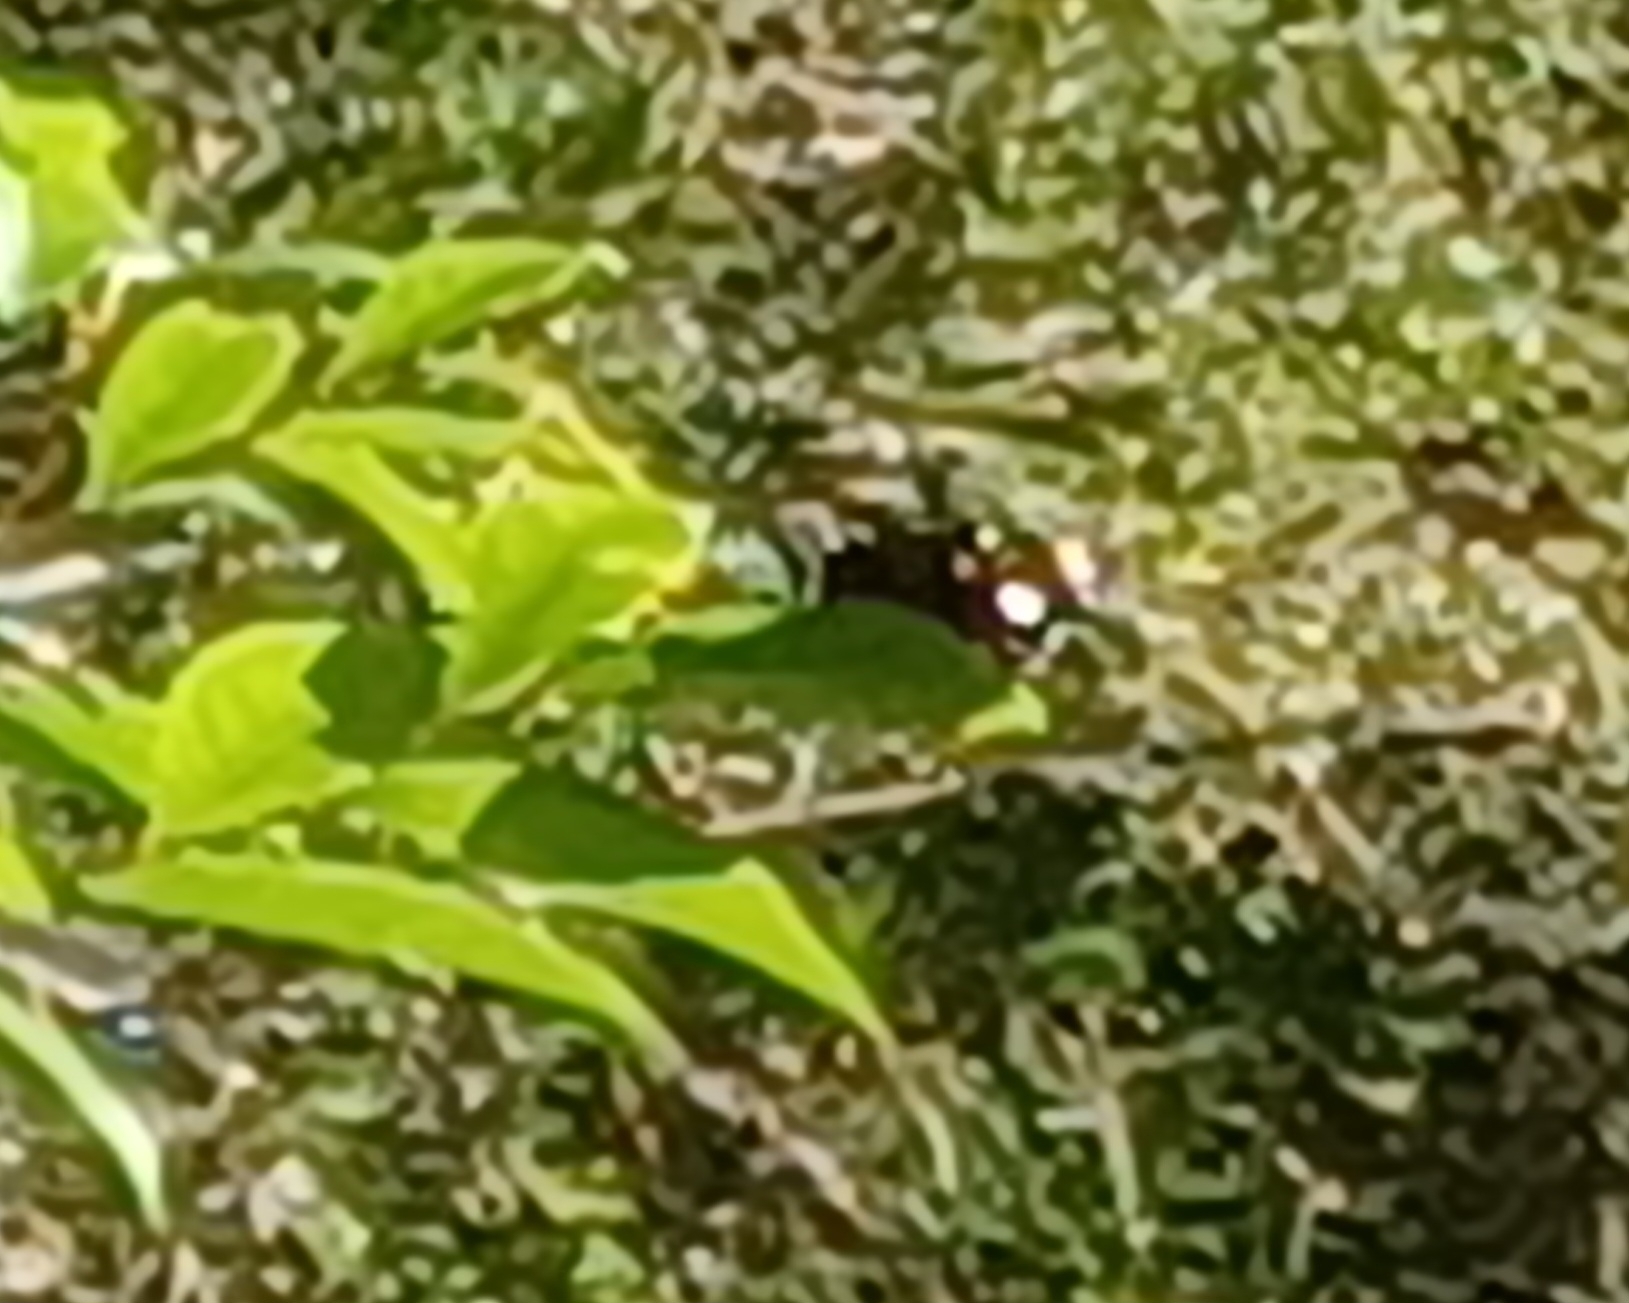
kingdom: Animalia
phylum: Arthropoda
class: Insecta
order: Lepidoptera
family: Nymphalidae
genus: Euploea
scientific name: Euploea core
